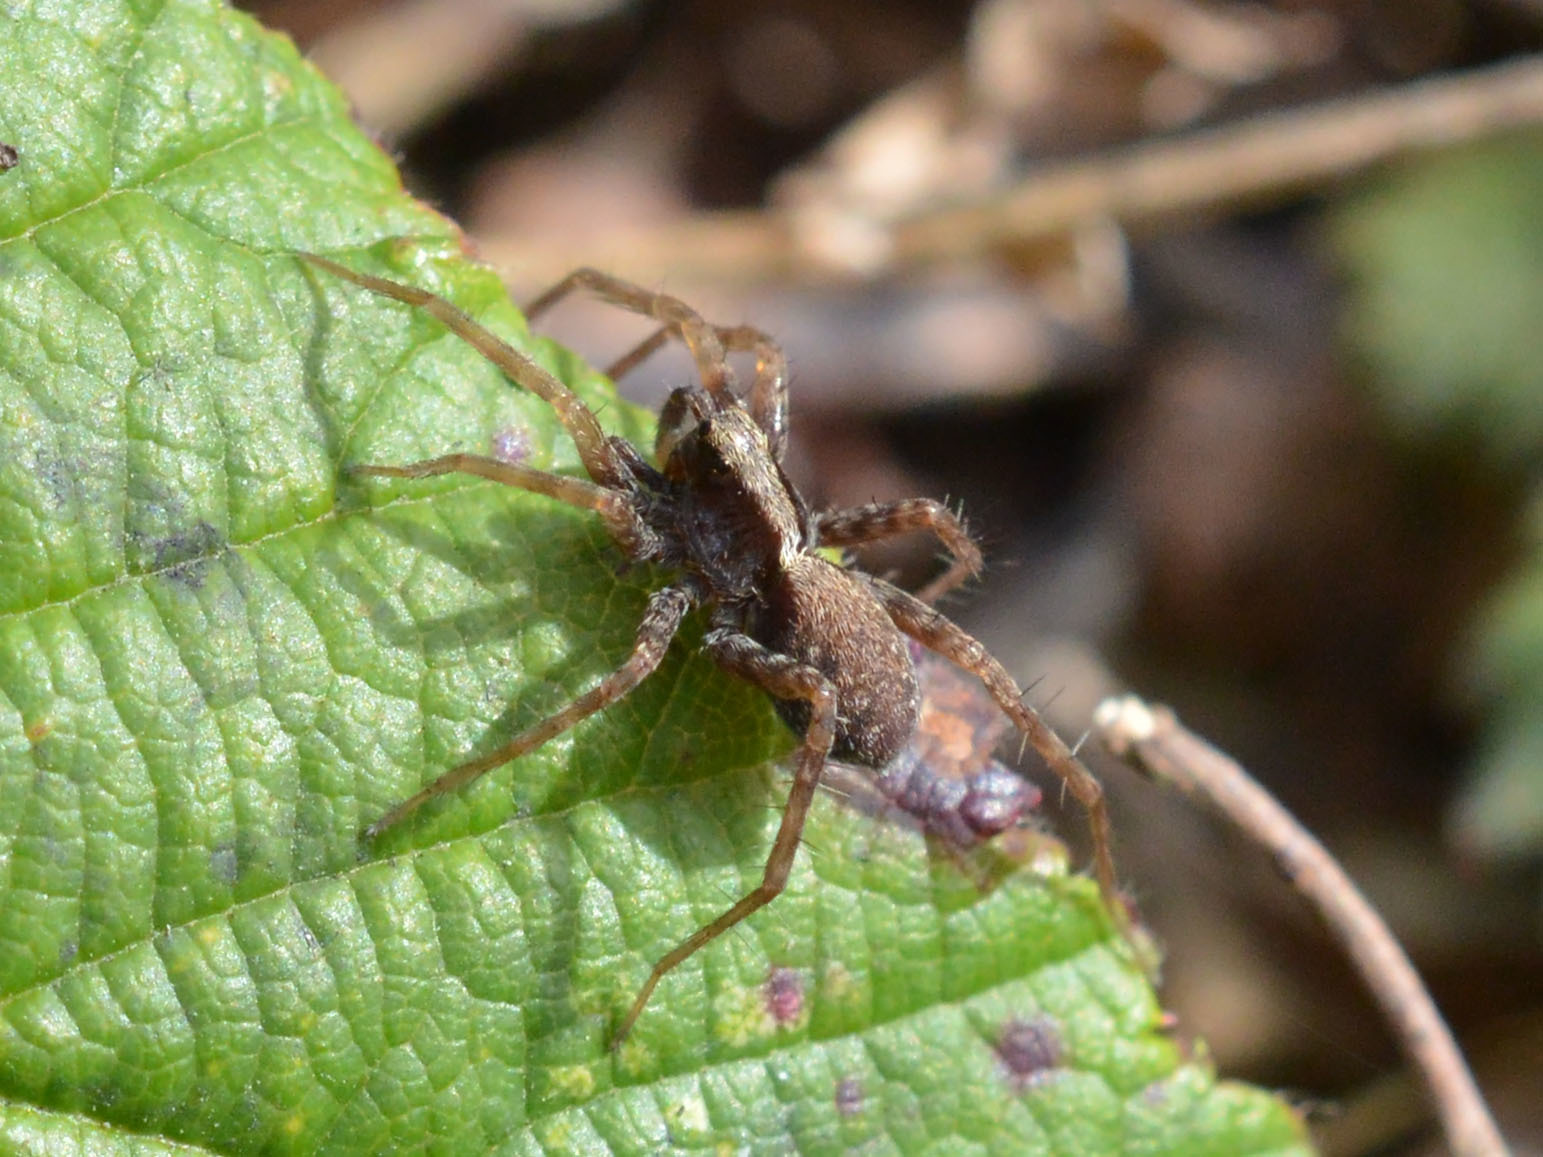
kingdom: Animalia
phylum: Arthropoda
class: Arachnida
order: Araneae
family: Lycosidae
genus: Pardosa
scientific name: Pardosa
